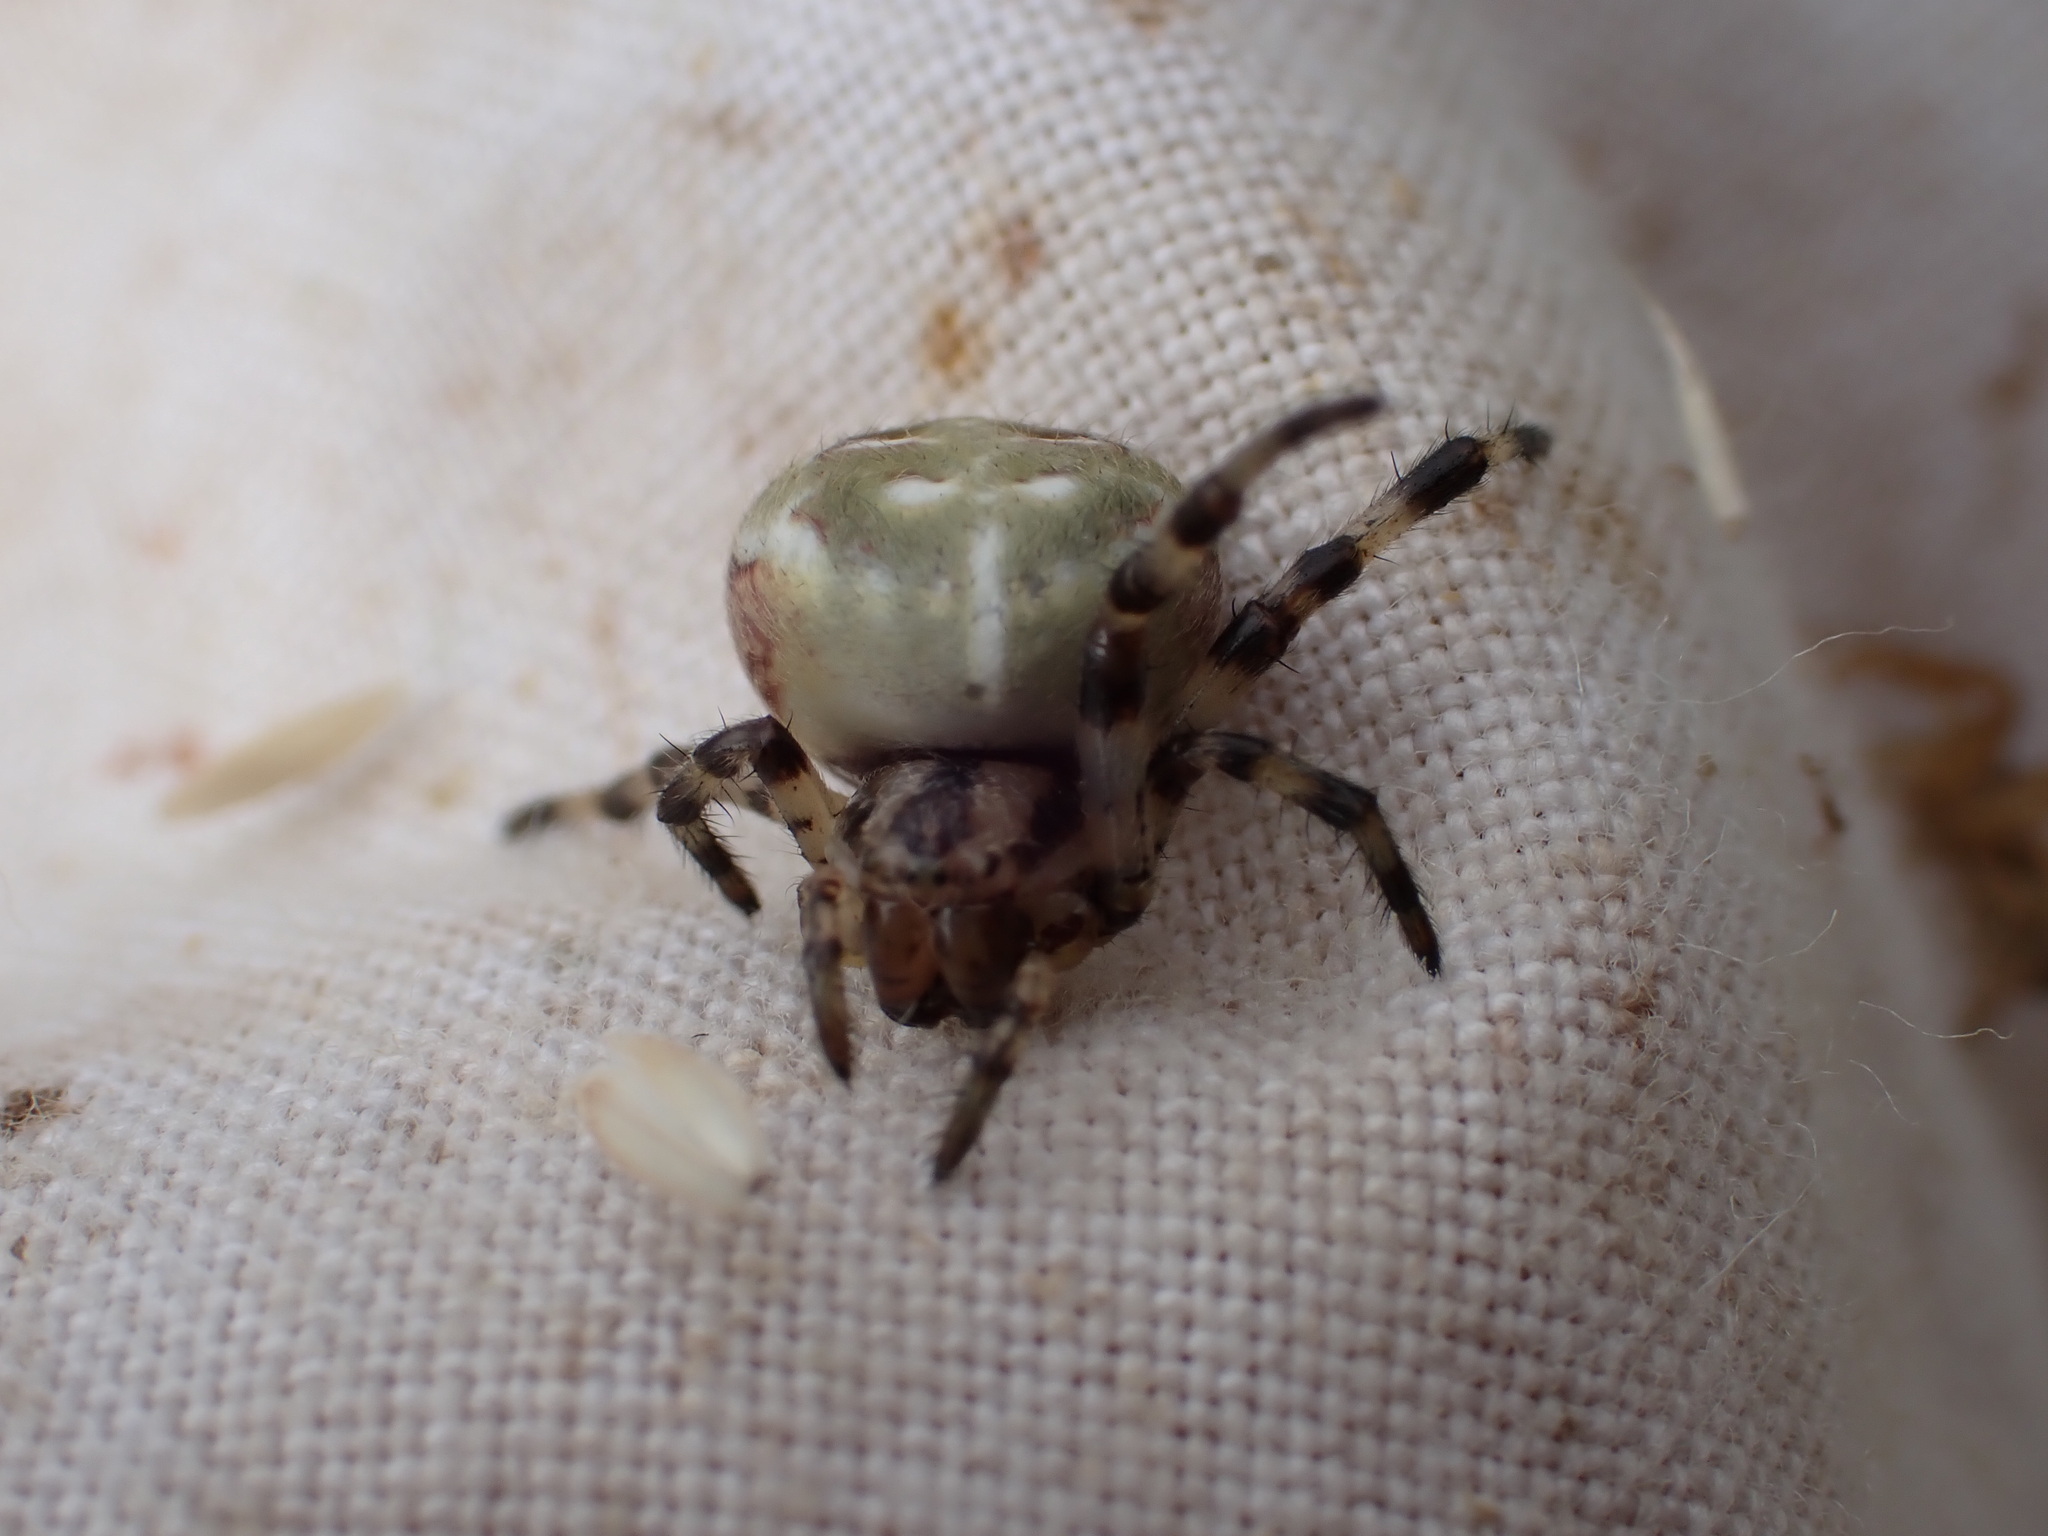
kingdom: Animalia
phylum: Arthropoda
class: Arachnida
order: Araneae
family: Araneidae
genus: Araneus
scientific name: Araneus quadratus
